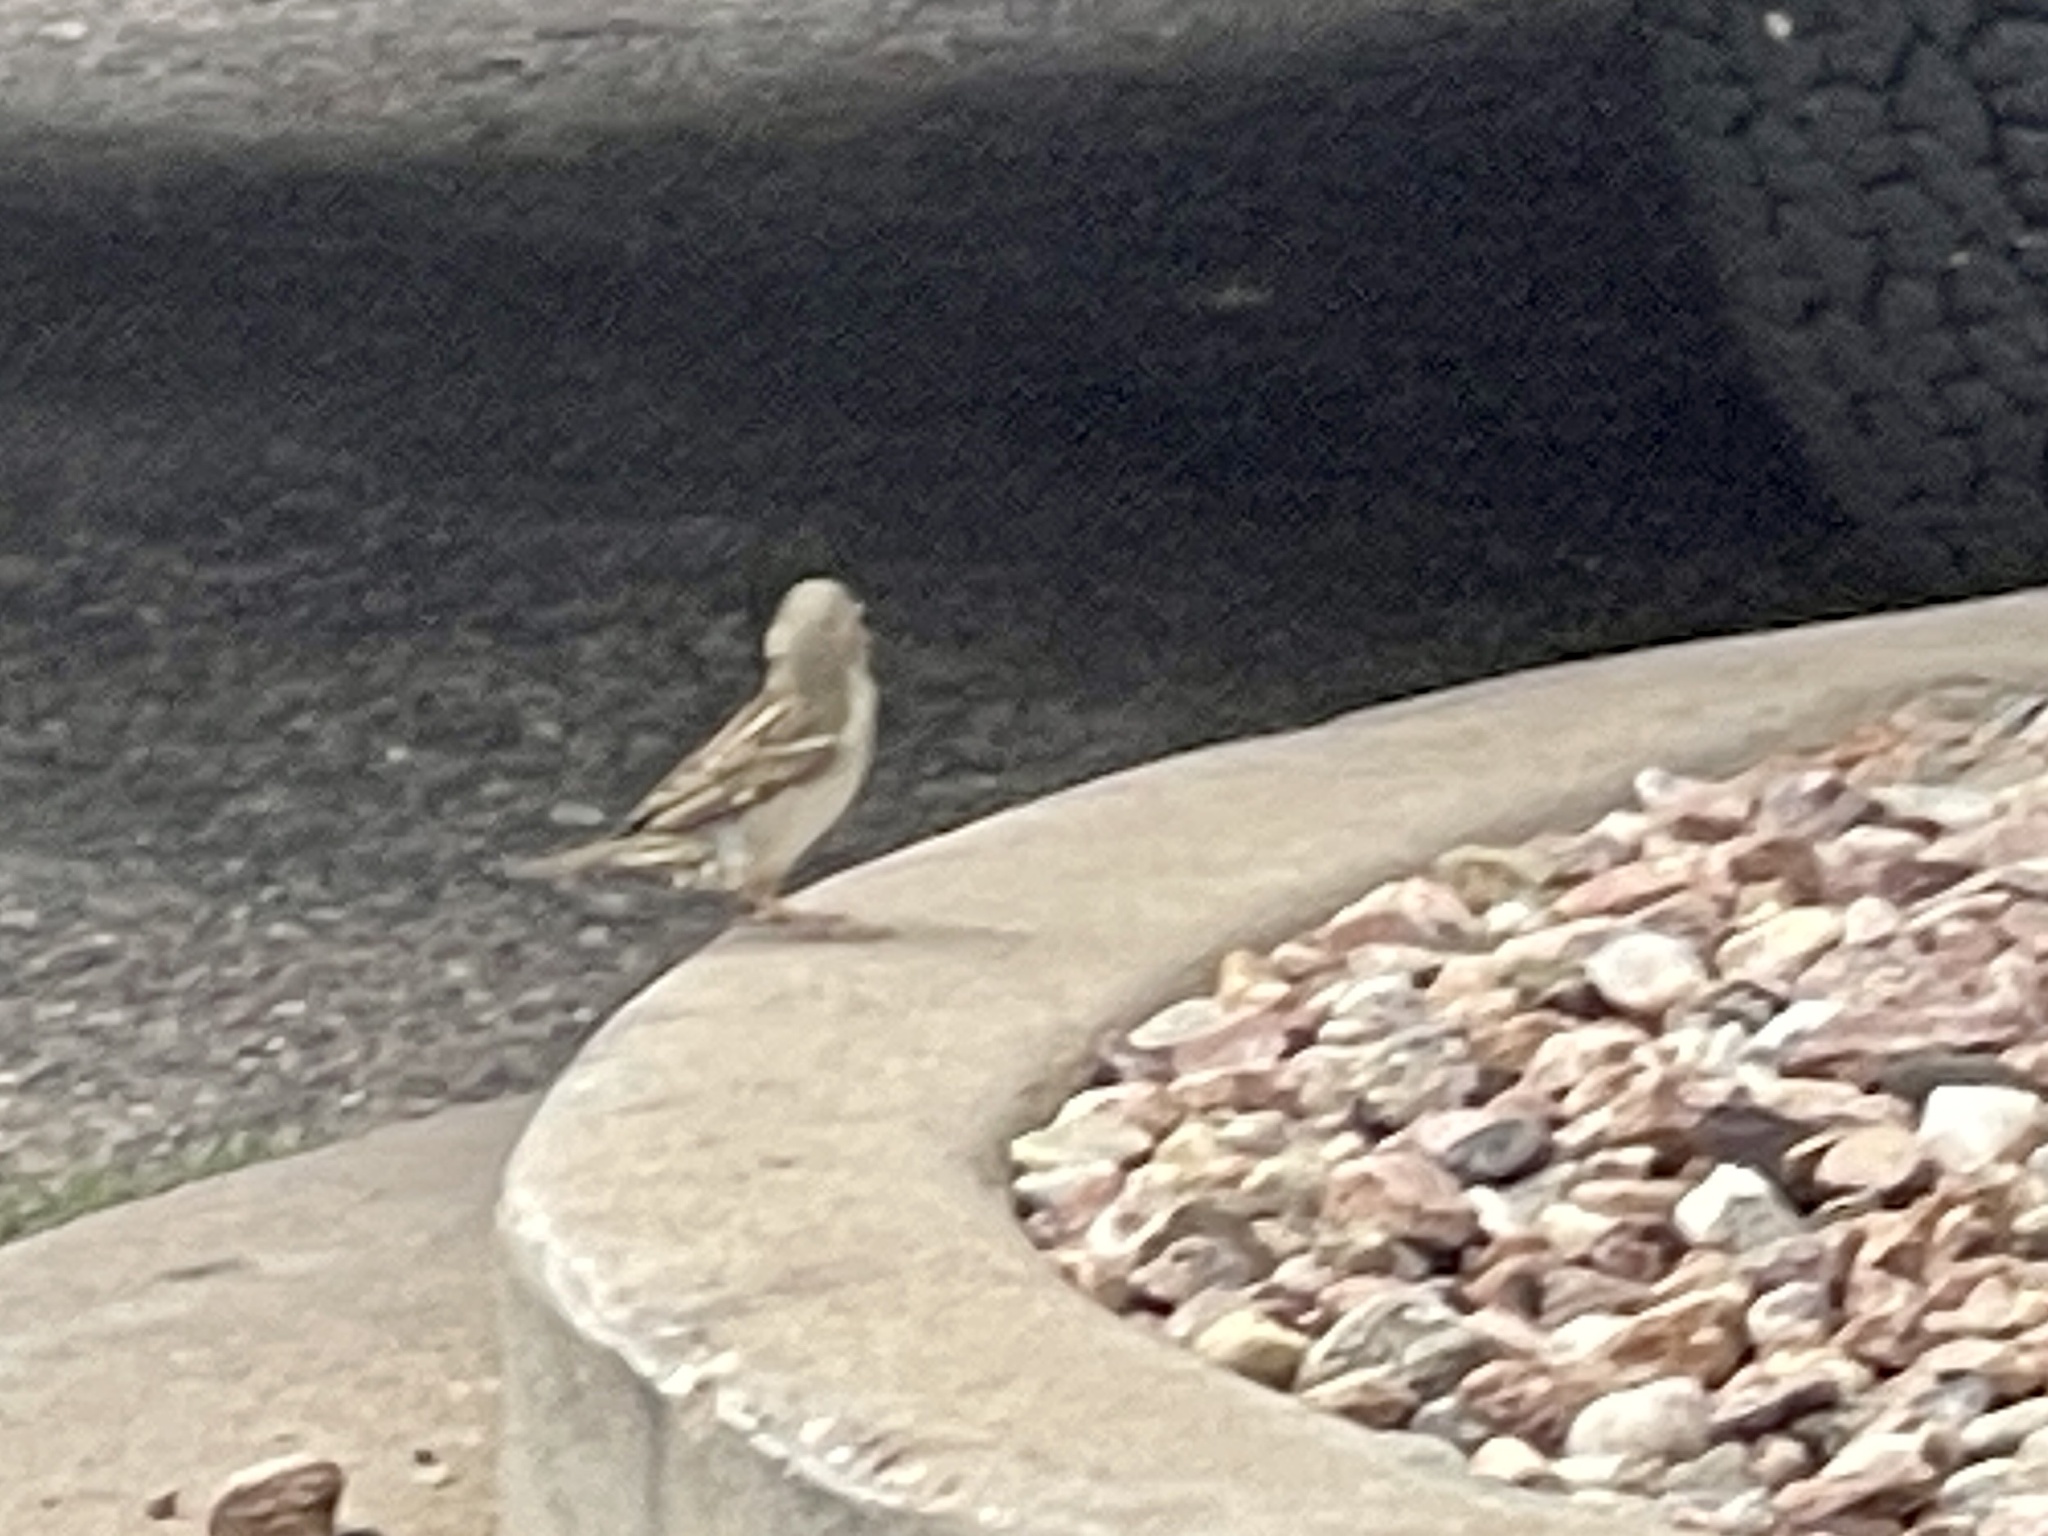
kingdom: Animalia
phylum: Chordata
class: Aves
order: Passeriformes
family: Passeridae
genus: Passer
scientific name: Passer domesticus
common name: House sparrow
